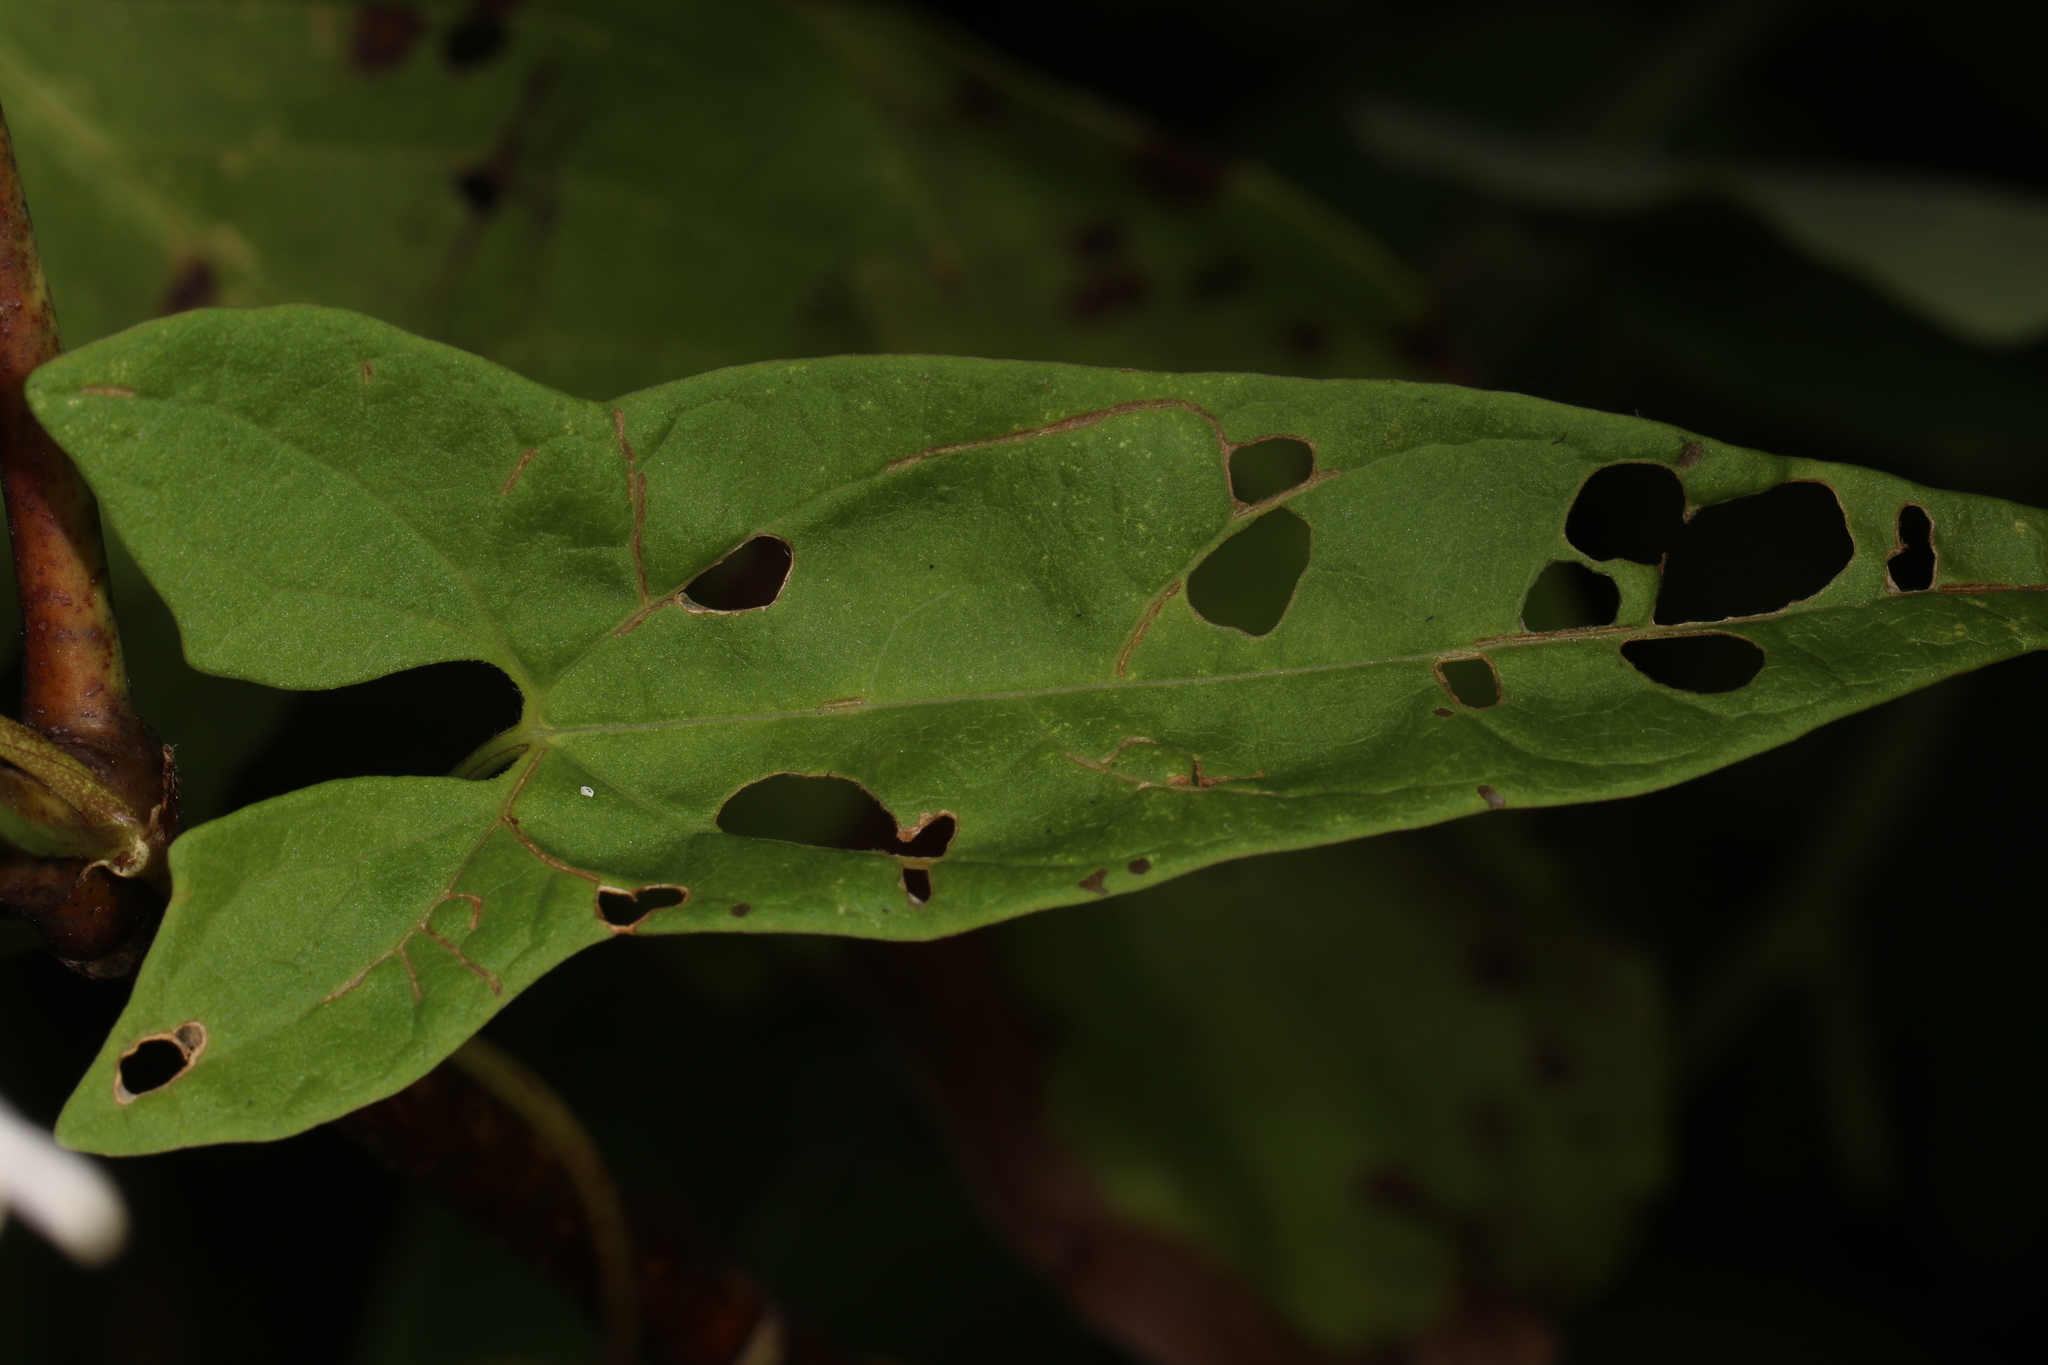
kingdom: Plantae
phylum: Tracheophyta
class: Magnoliopsida
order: Solanales
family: Convolvulaceae
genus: Calystegia
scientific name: Calystegia sepium
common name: Hedge bindweed
